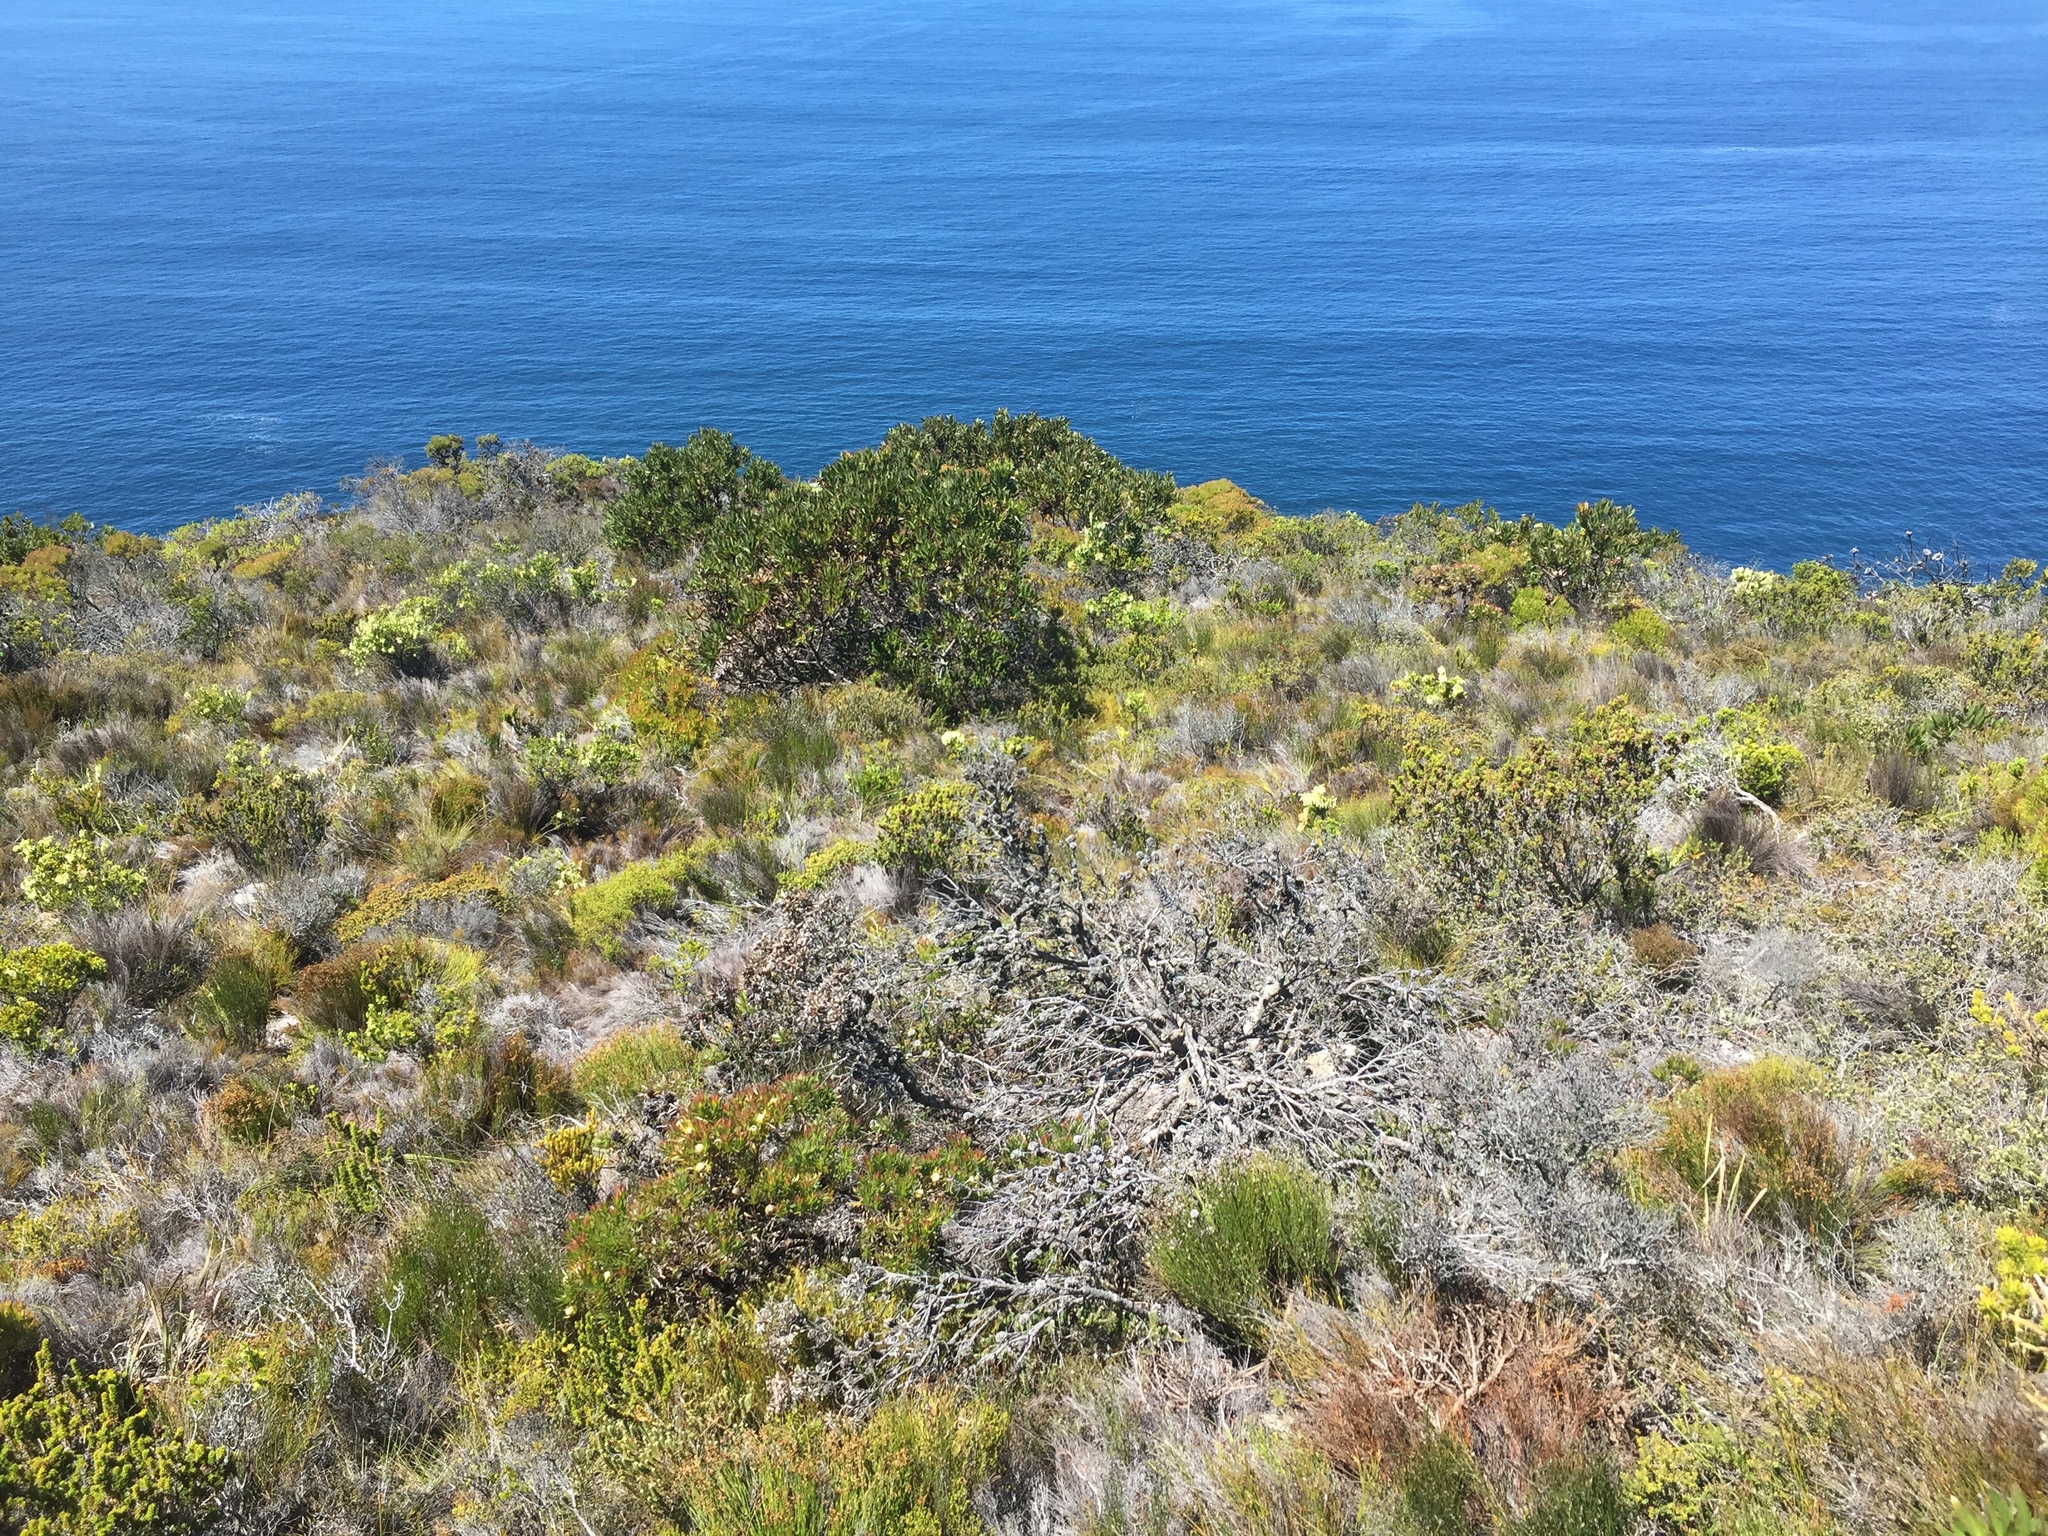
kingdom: Plantae
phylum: Tracheophyta
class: Magnoliopsida
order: Proteales
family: Proteaceae
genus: Protea
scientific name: Protea lepidocarpodendron
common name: Black-bearded protea
